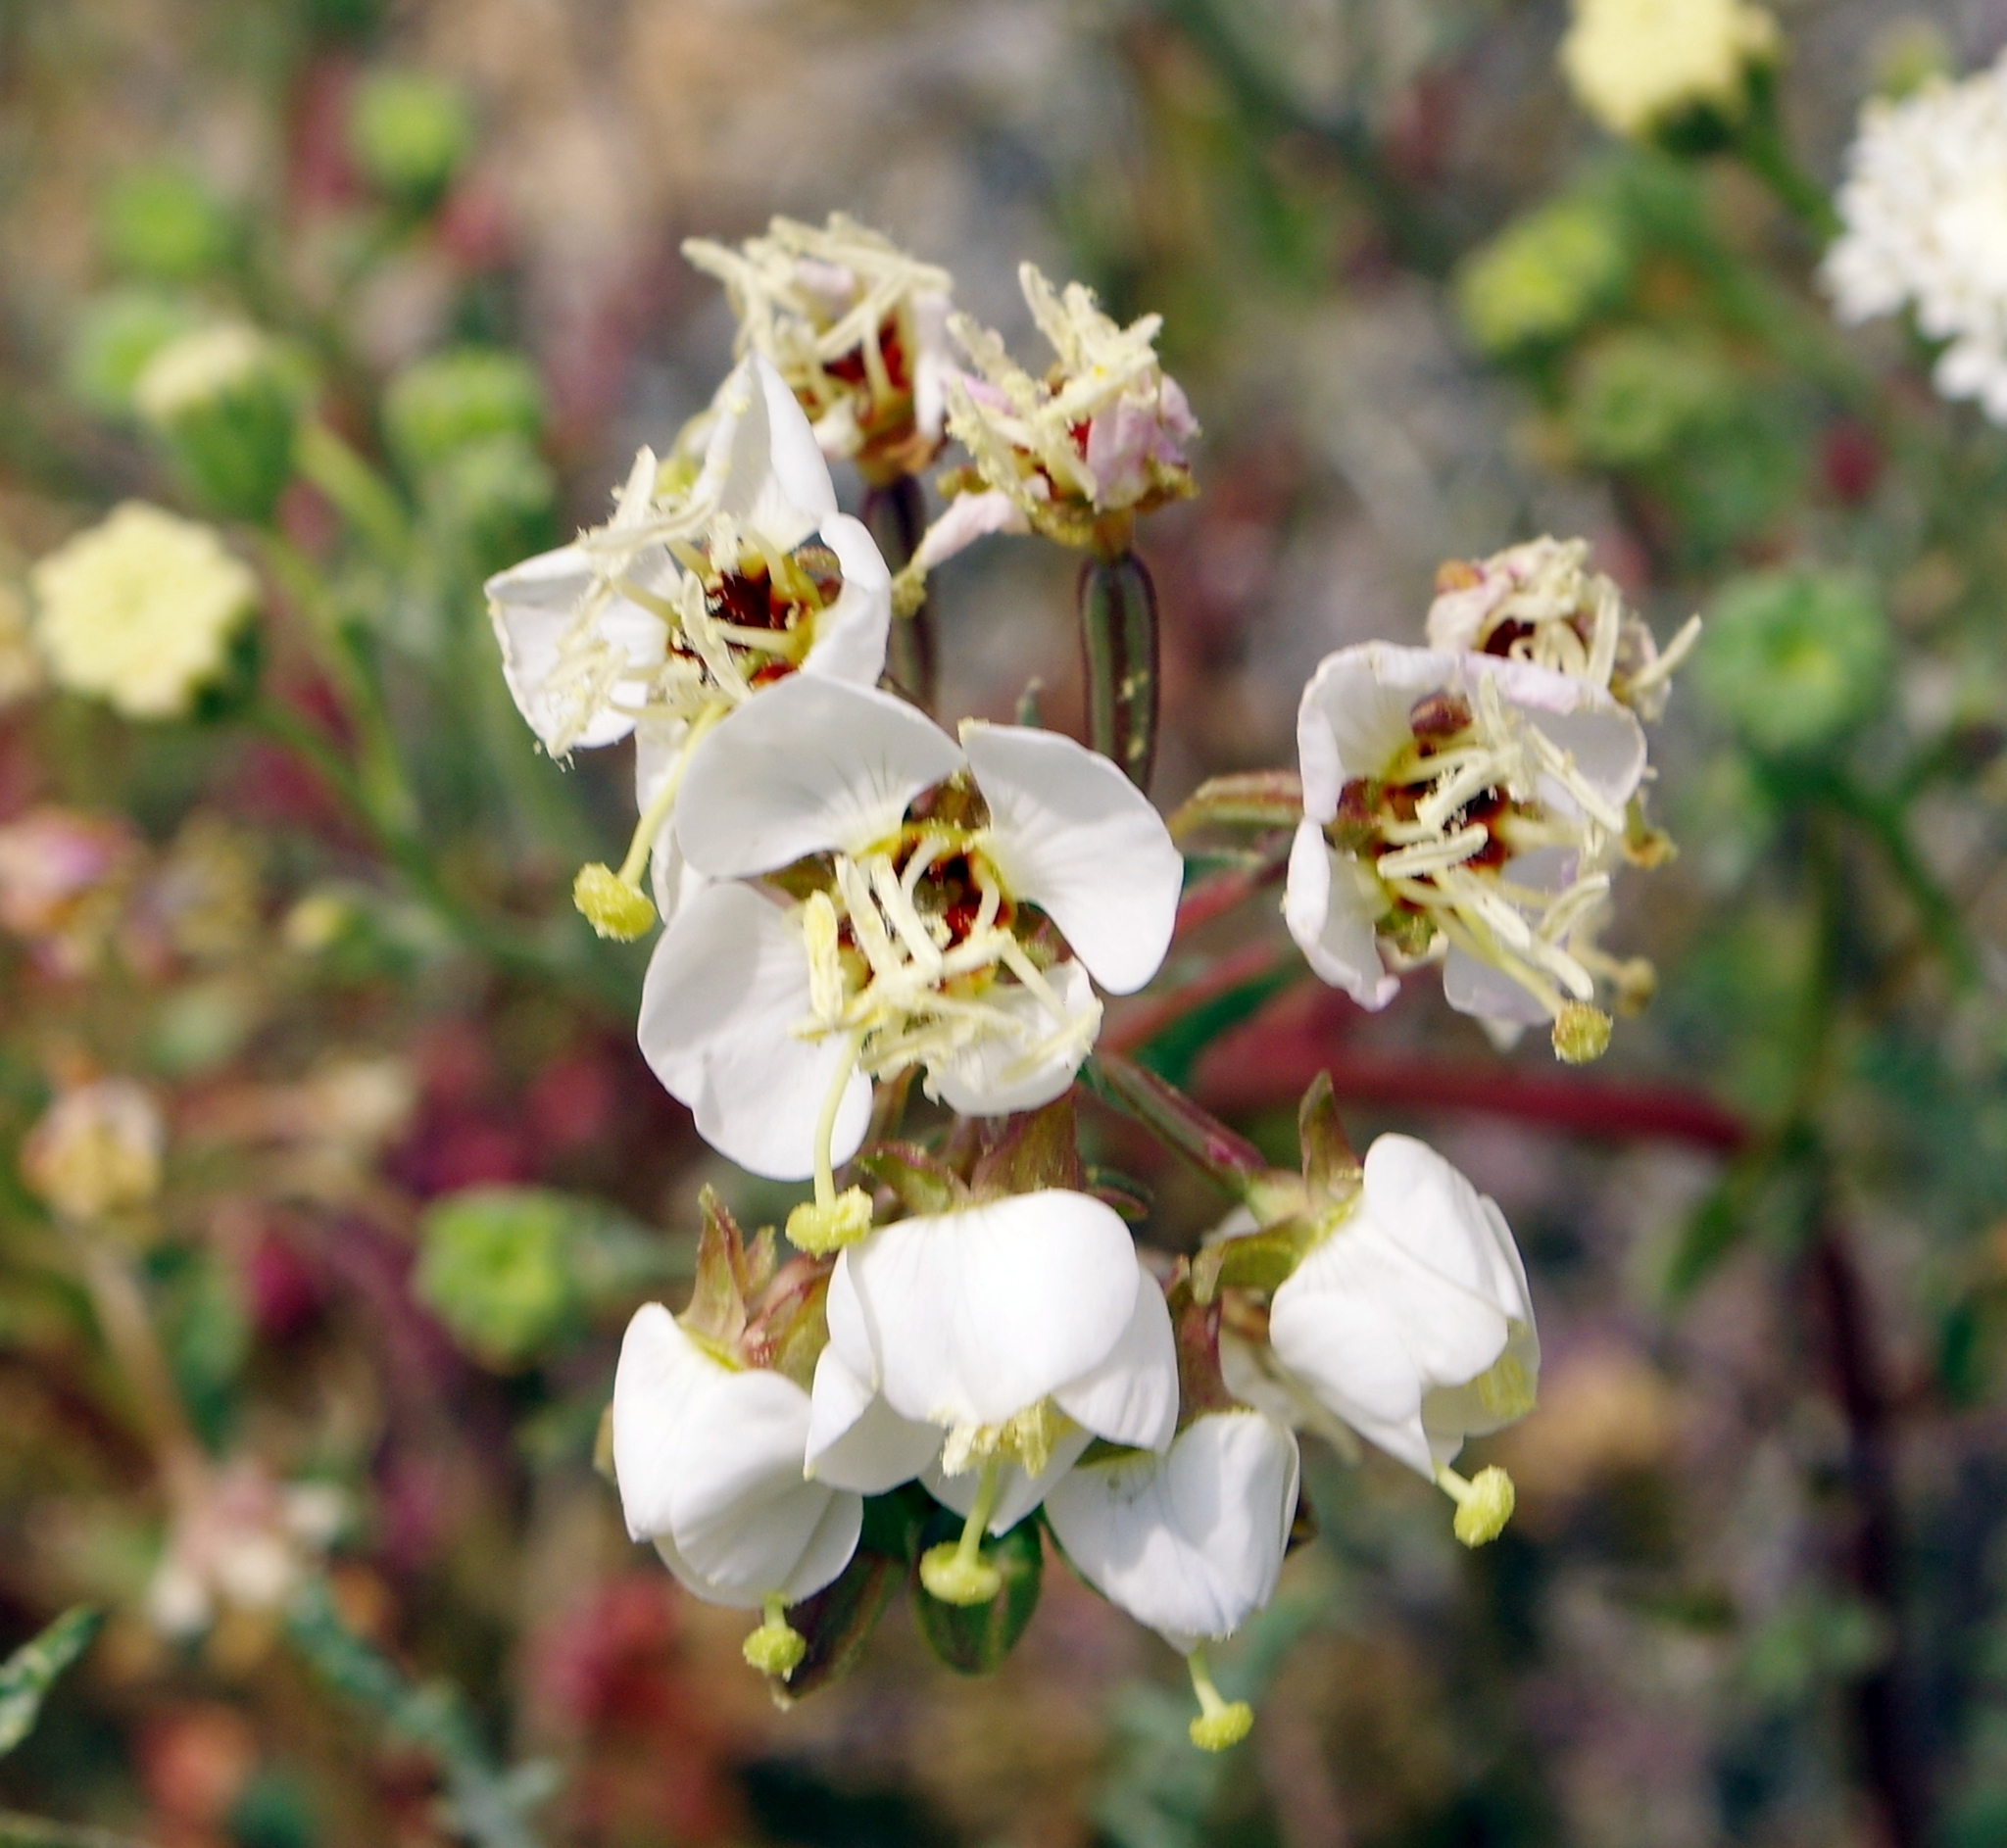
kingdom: Plantae
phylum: Tracheophyta
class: Magnoliopsida
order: Myrtales
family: Onagraceae
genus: Chylismia
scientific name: Chylismia claviformis
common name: Browneyes
